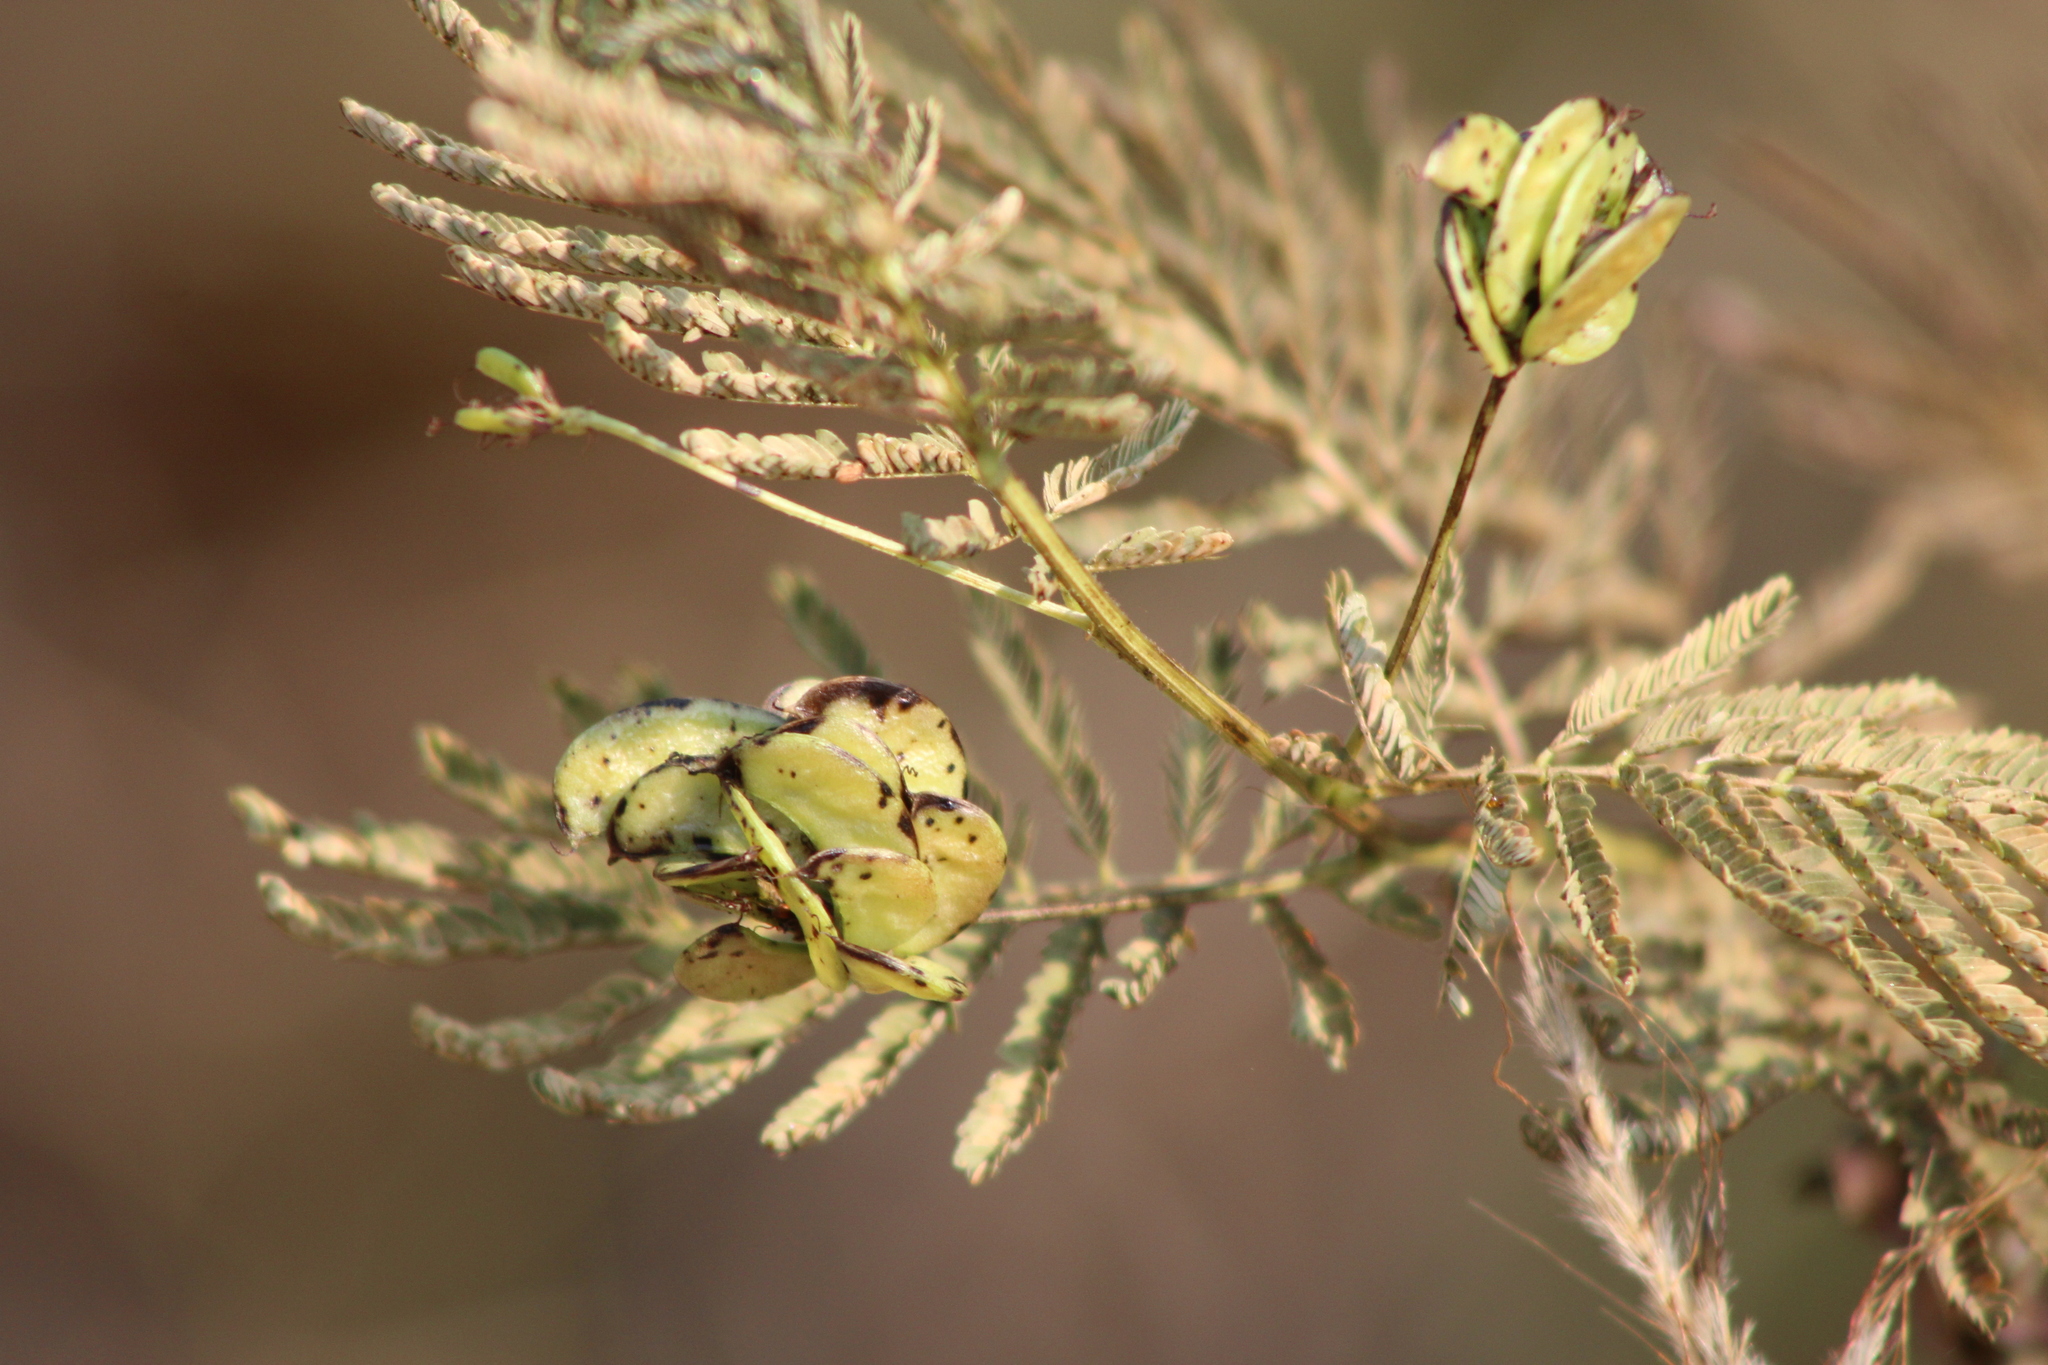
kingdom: Plantae
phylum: Tracheophyta
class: Magnoliopsida
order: Fabales
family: Fabaceae
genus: Desmanthus
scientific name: Desmanthus illinoensis
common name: Illinois bundle-flower
